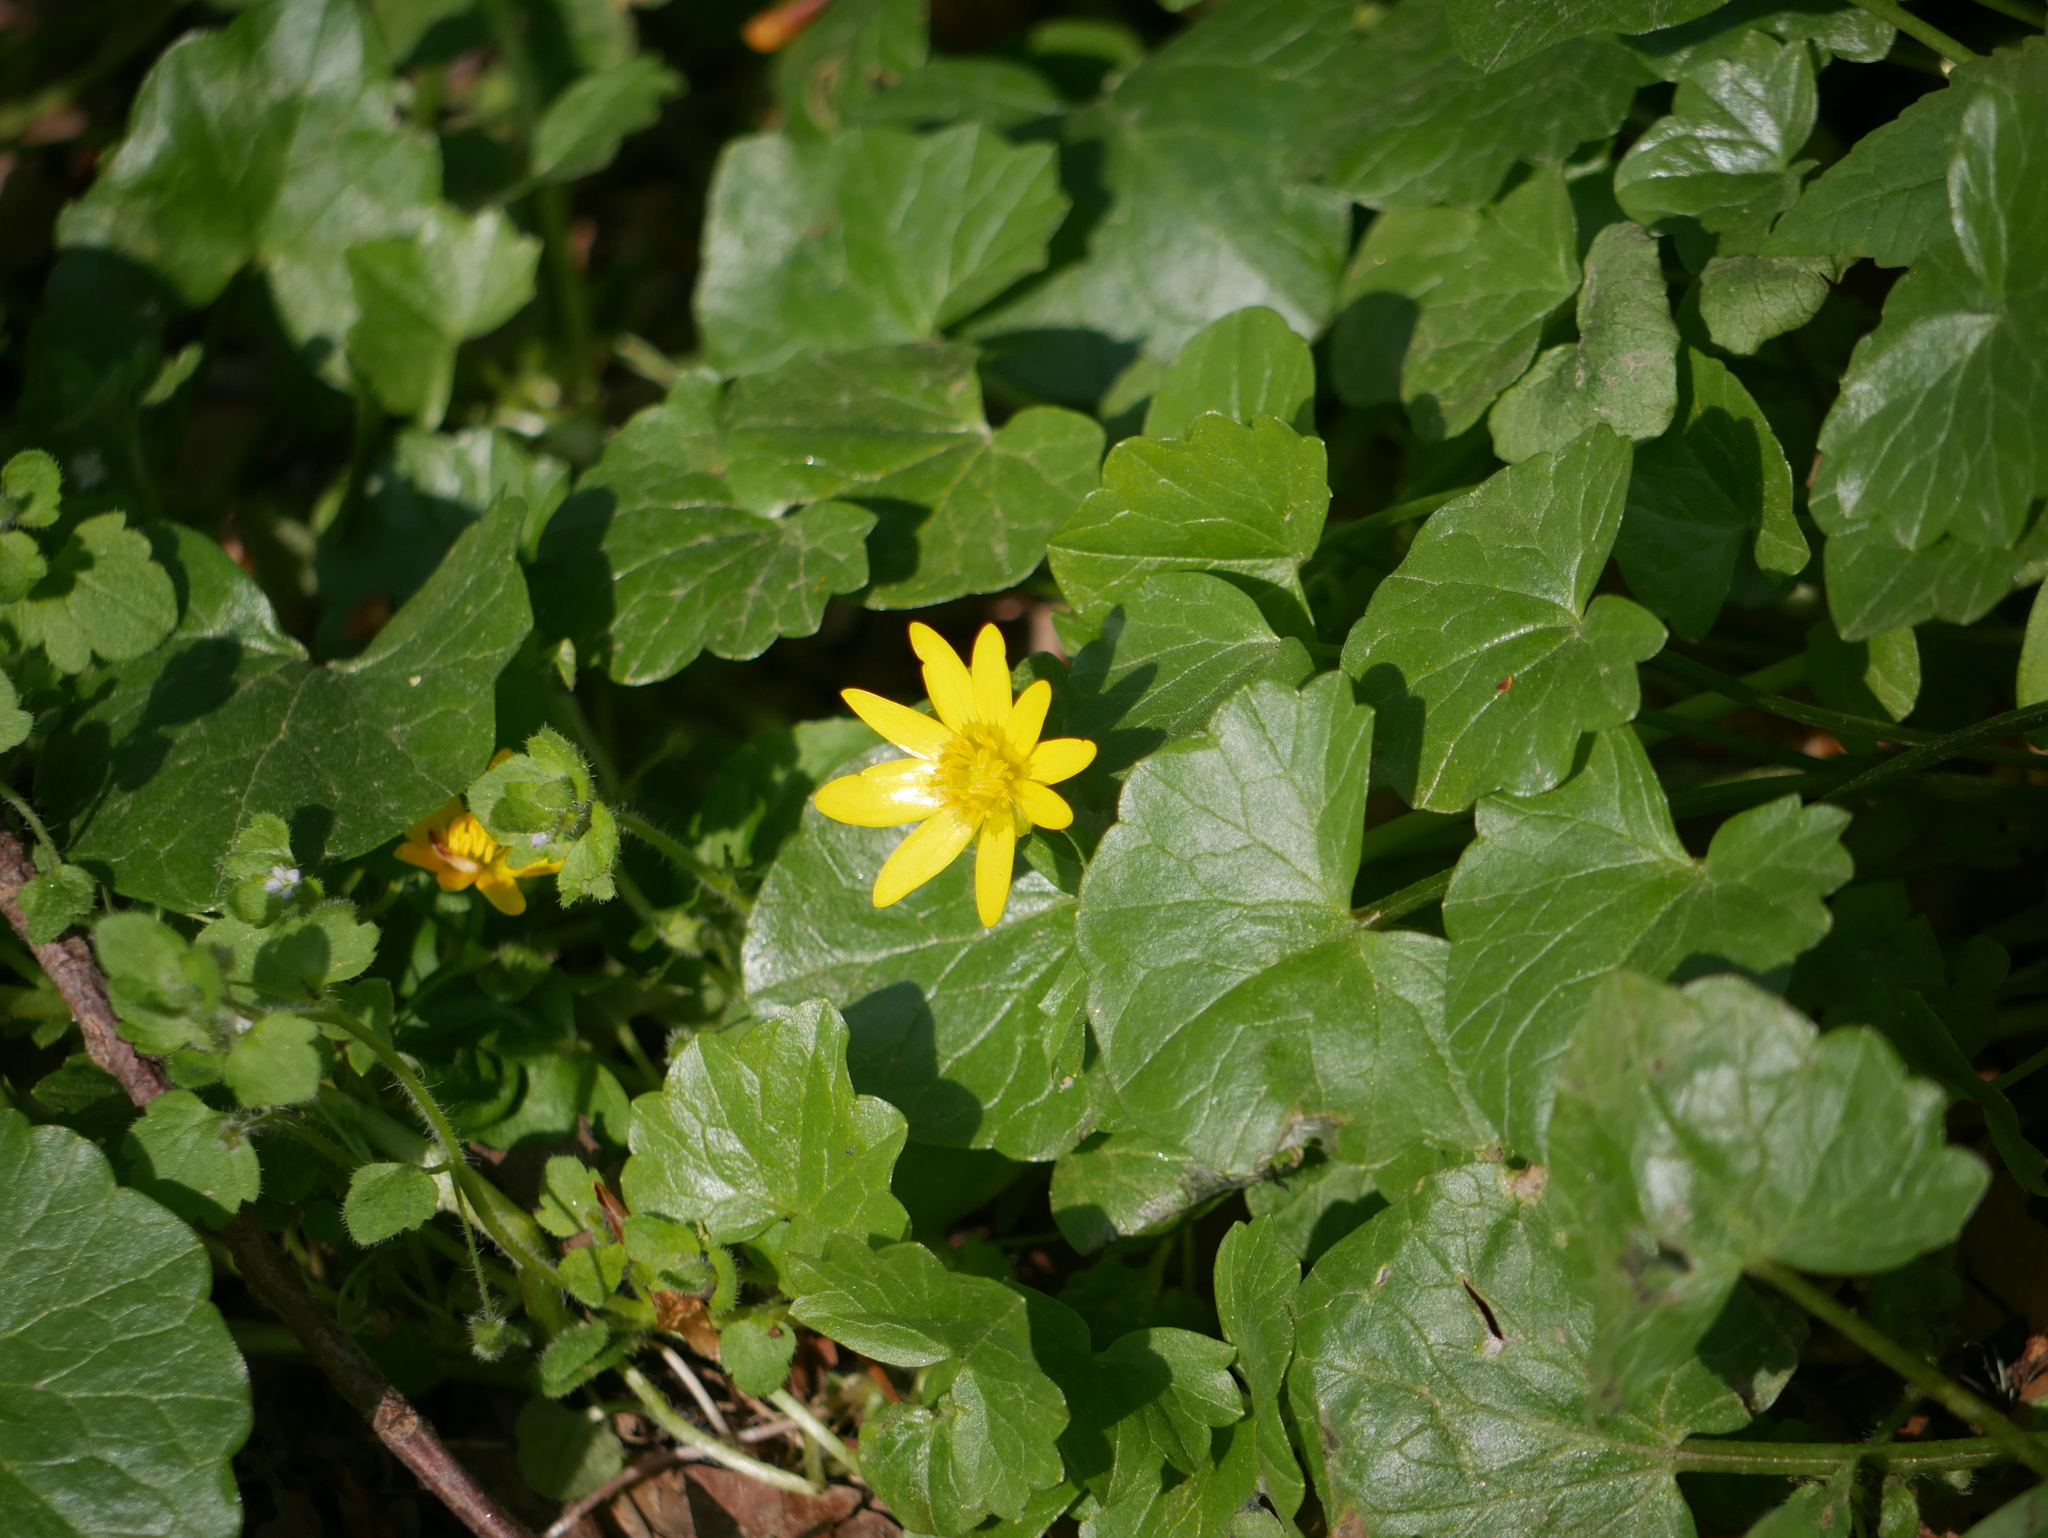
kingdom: Plantae
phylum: Tracheophyta
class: Magnoliopsida
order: Ranunculales
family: Ranunculaceae
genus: Ficaria
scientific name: Ficaria verna
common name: Lesser celandine
